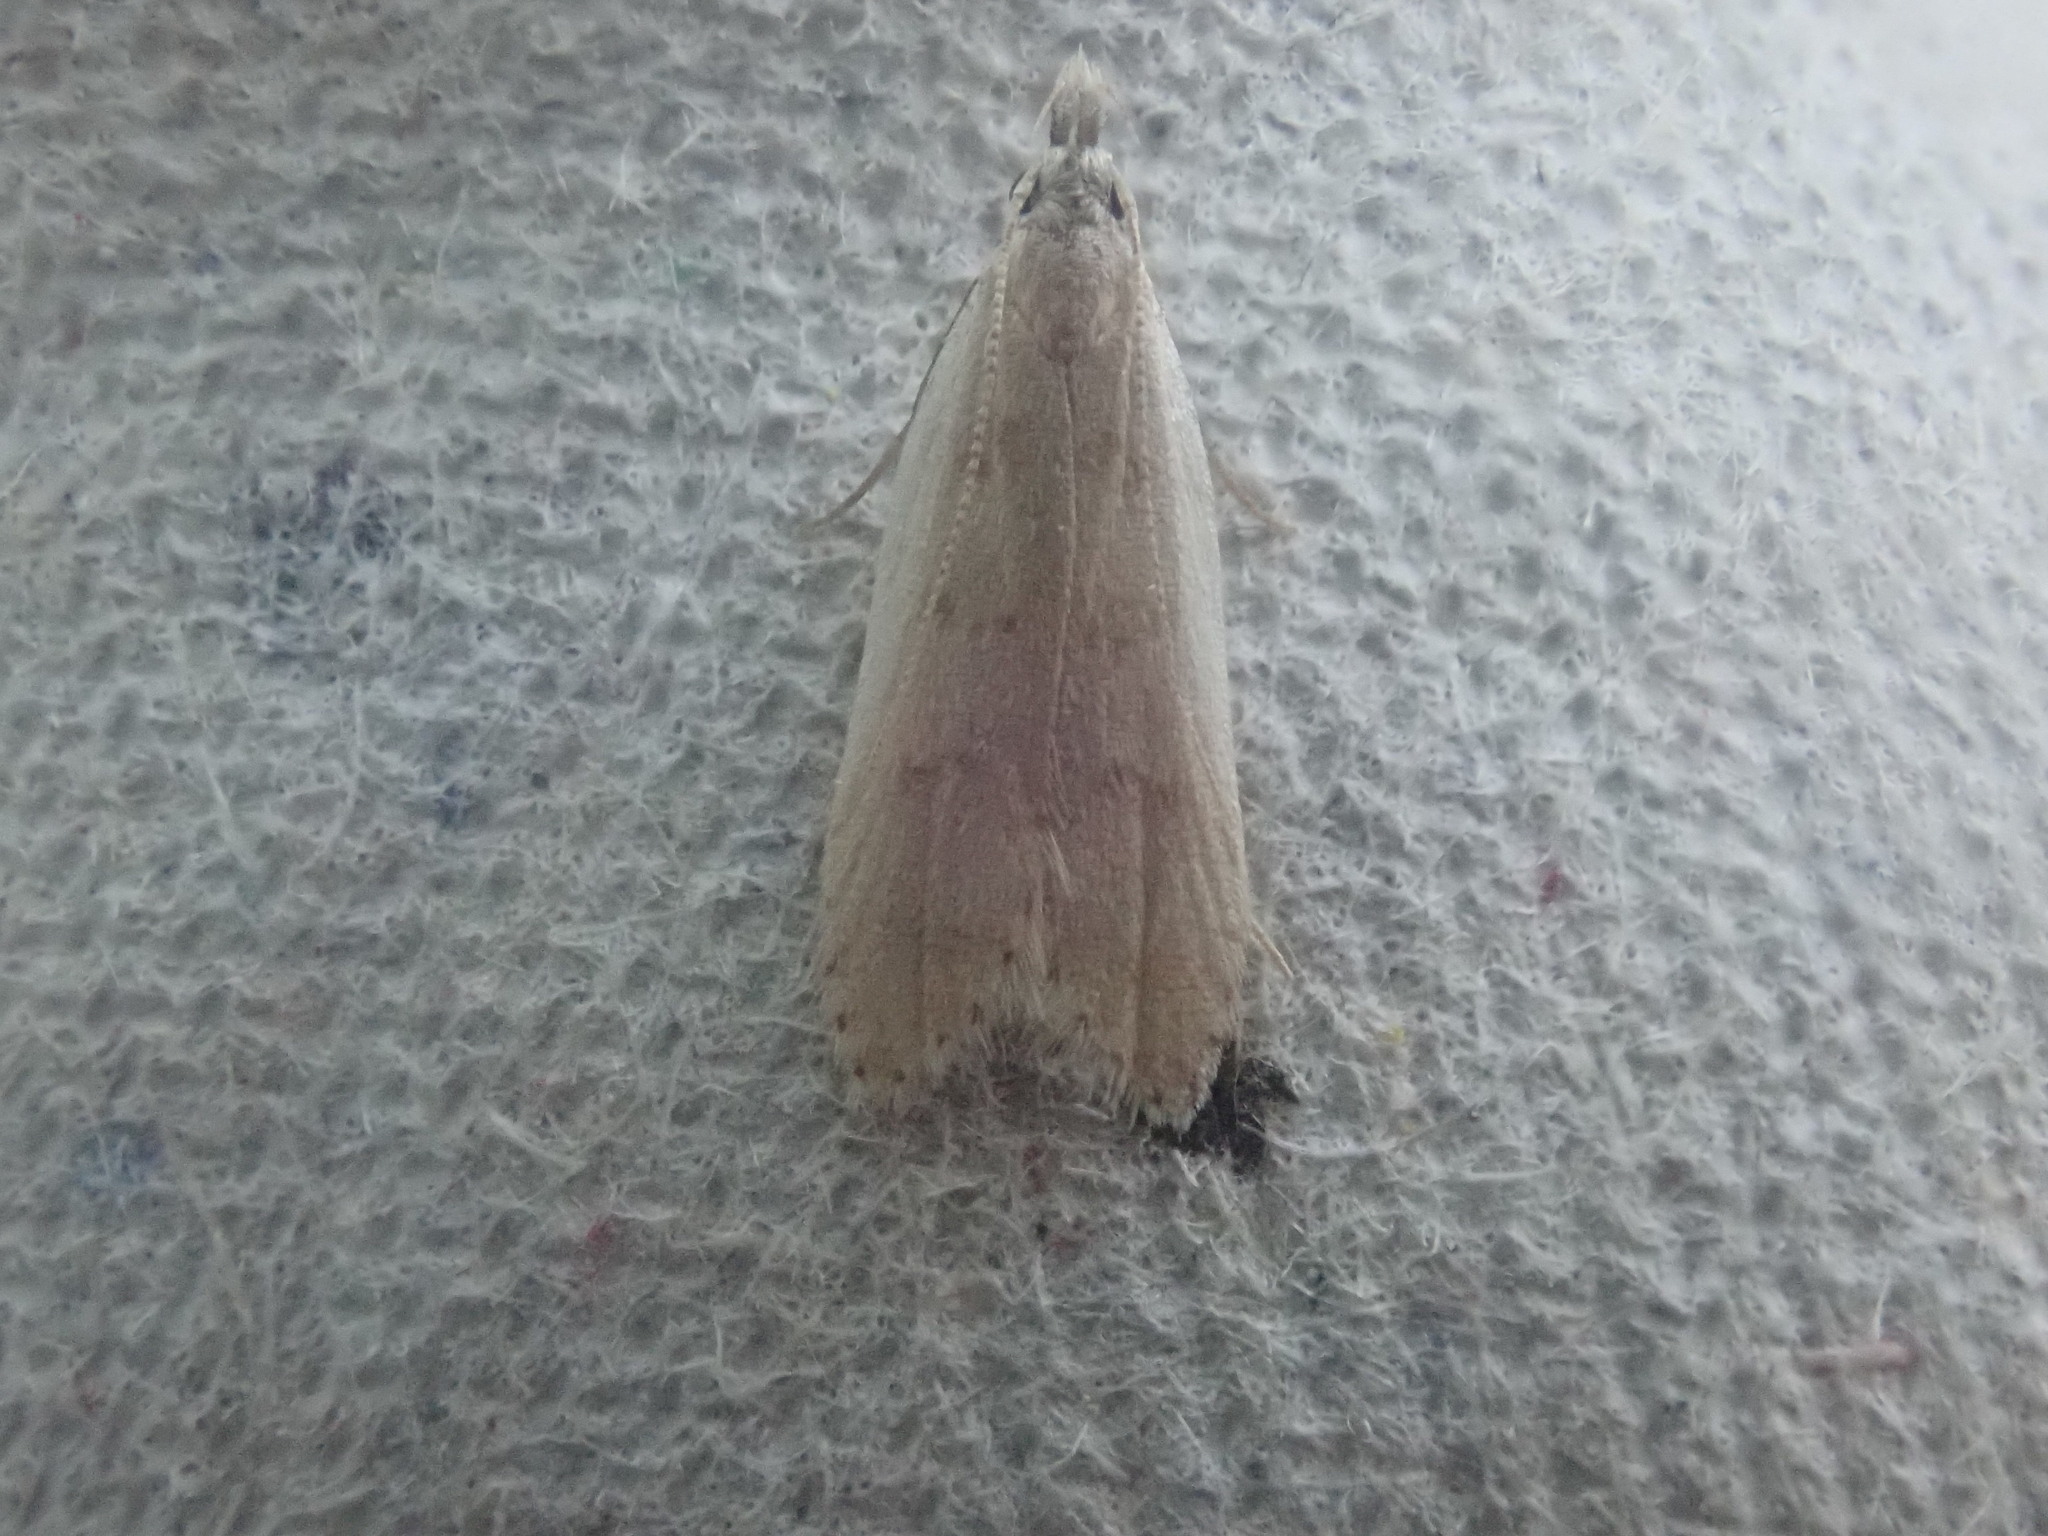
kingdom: Animalia
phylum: Arthropoda
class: Insecta
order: Lepidoptera
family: Gelechiidae
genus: Dichomeris
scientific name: Dichomeris punctidiscellus
